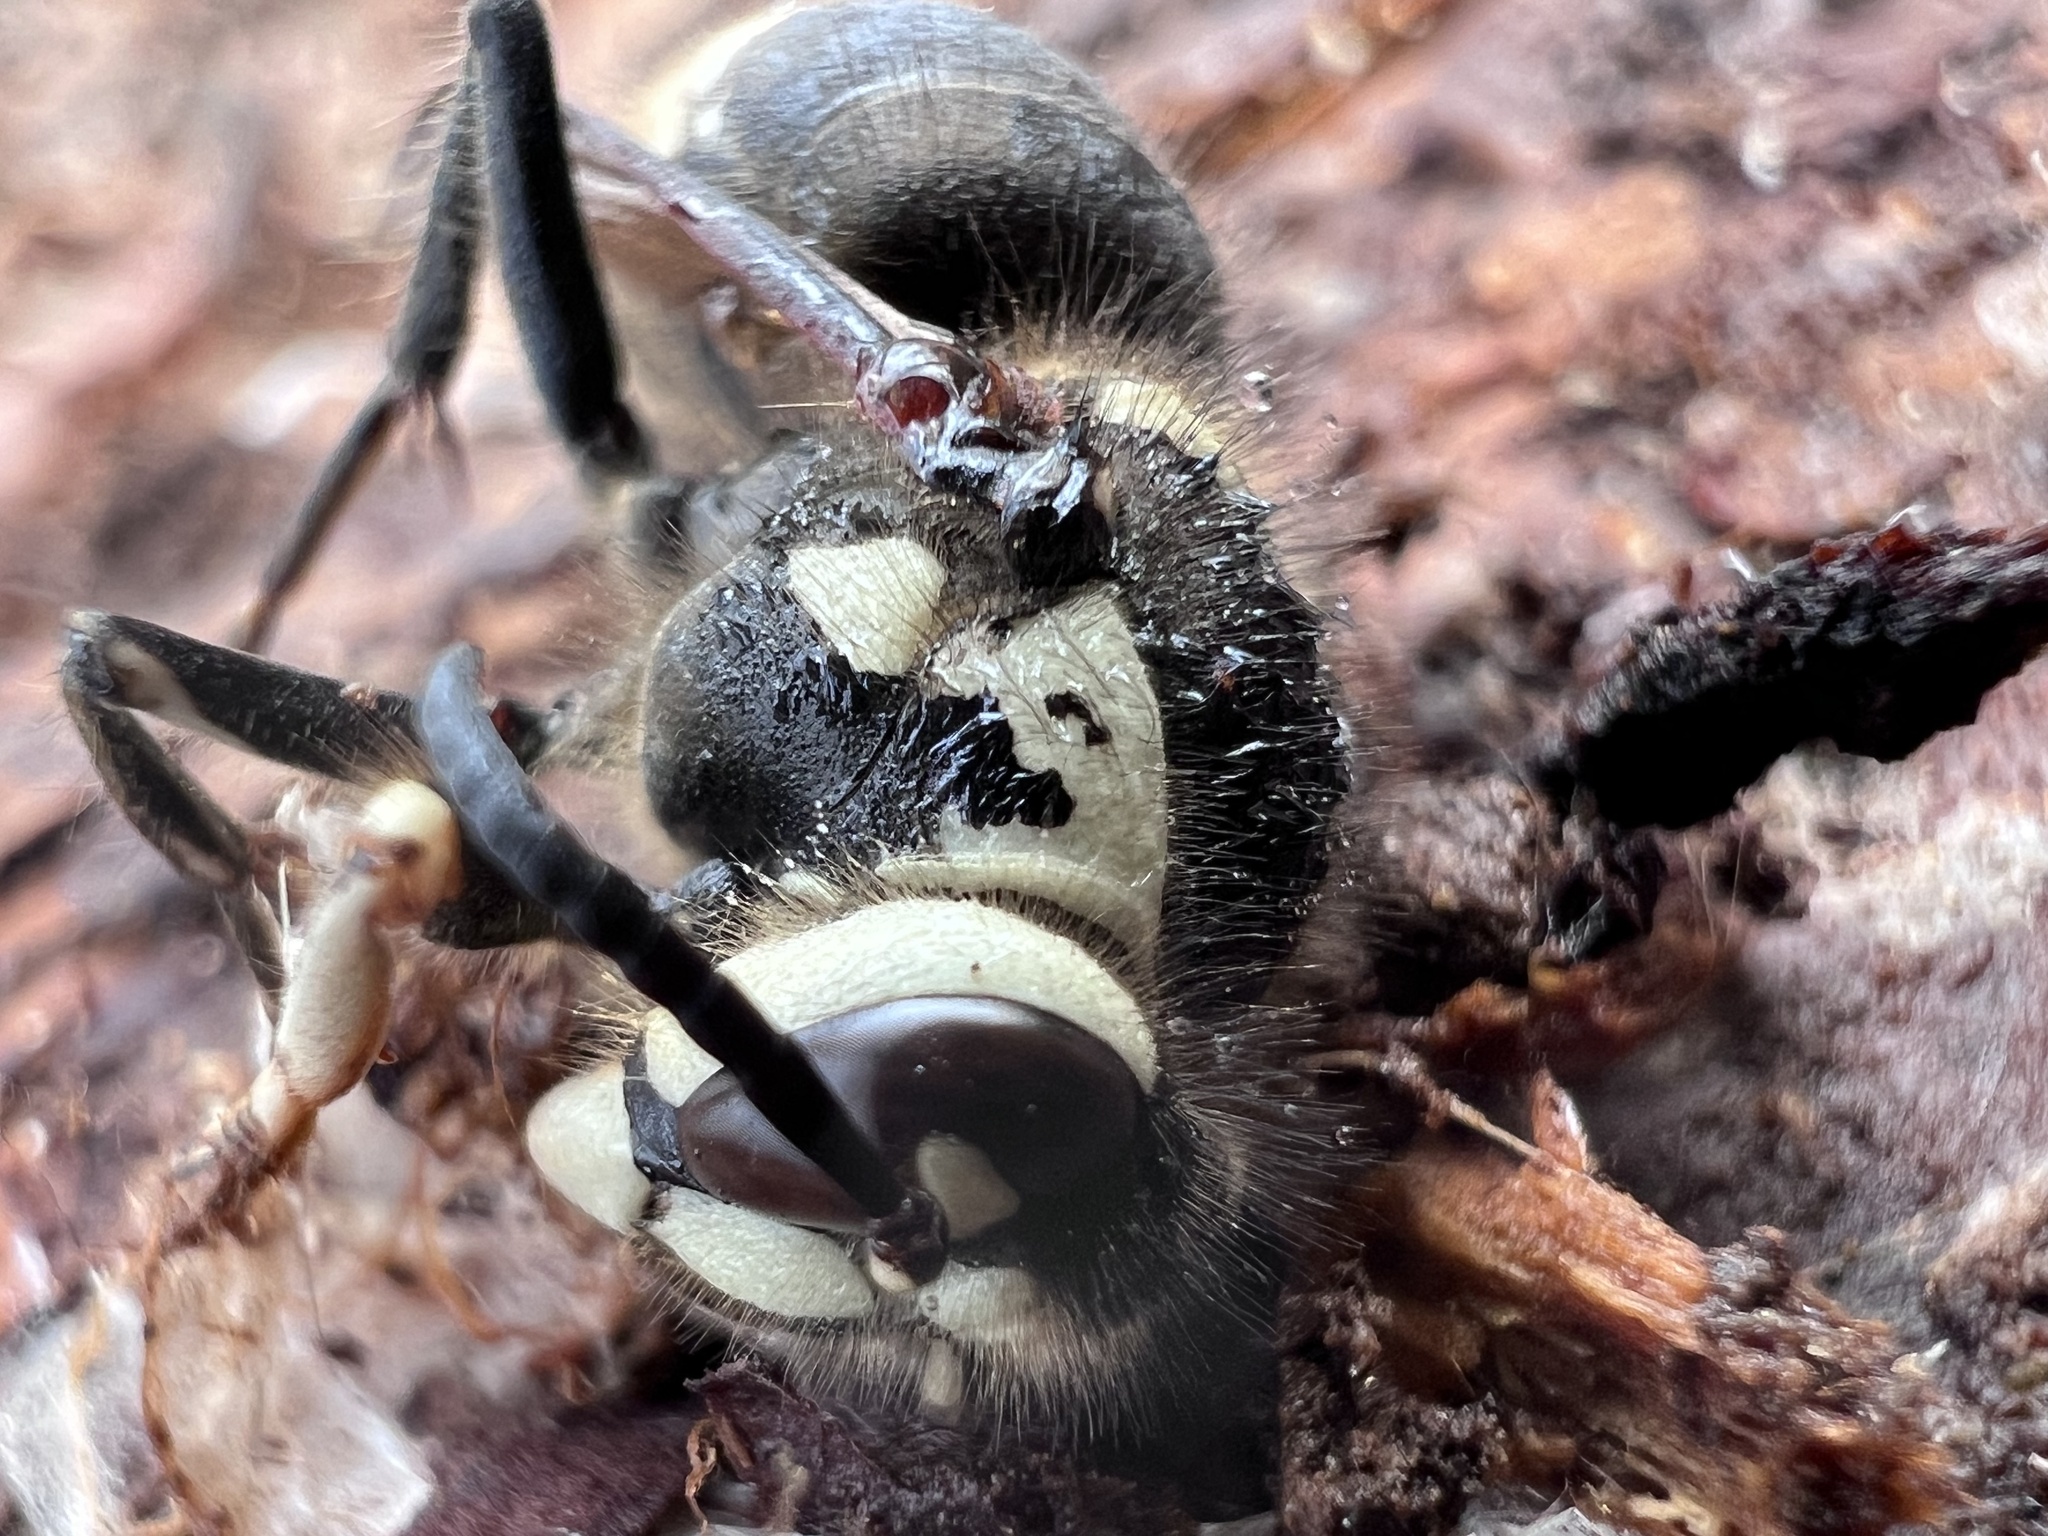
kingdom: Animalia
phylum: Arthropoda
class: Insecta
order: Hymenoptera
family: Vespidae
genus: Dolichovespula
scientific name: Dolichovespula maculata
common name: Bald-faced hornet
